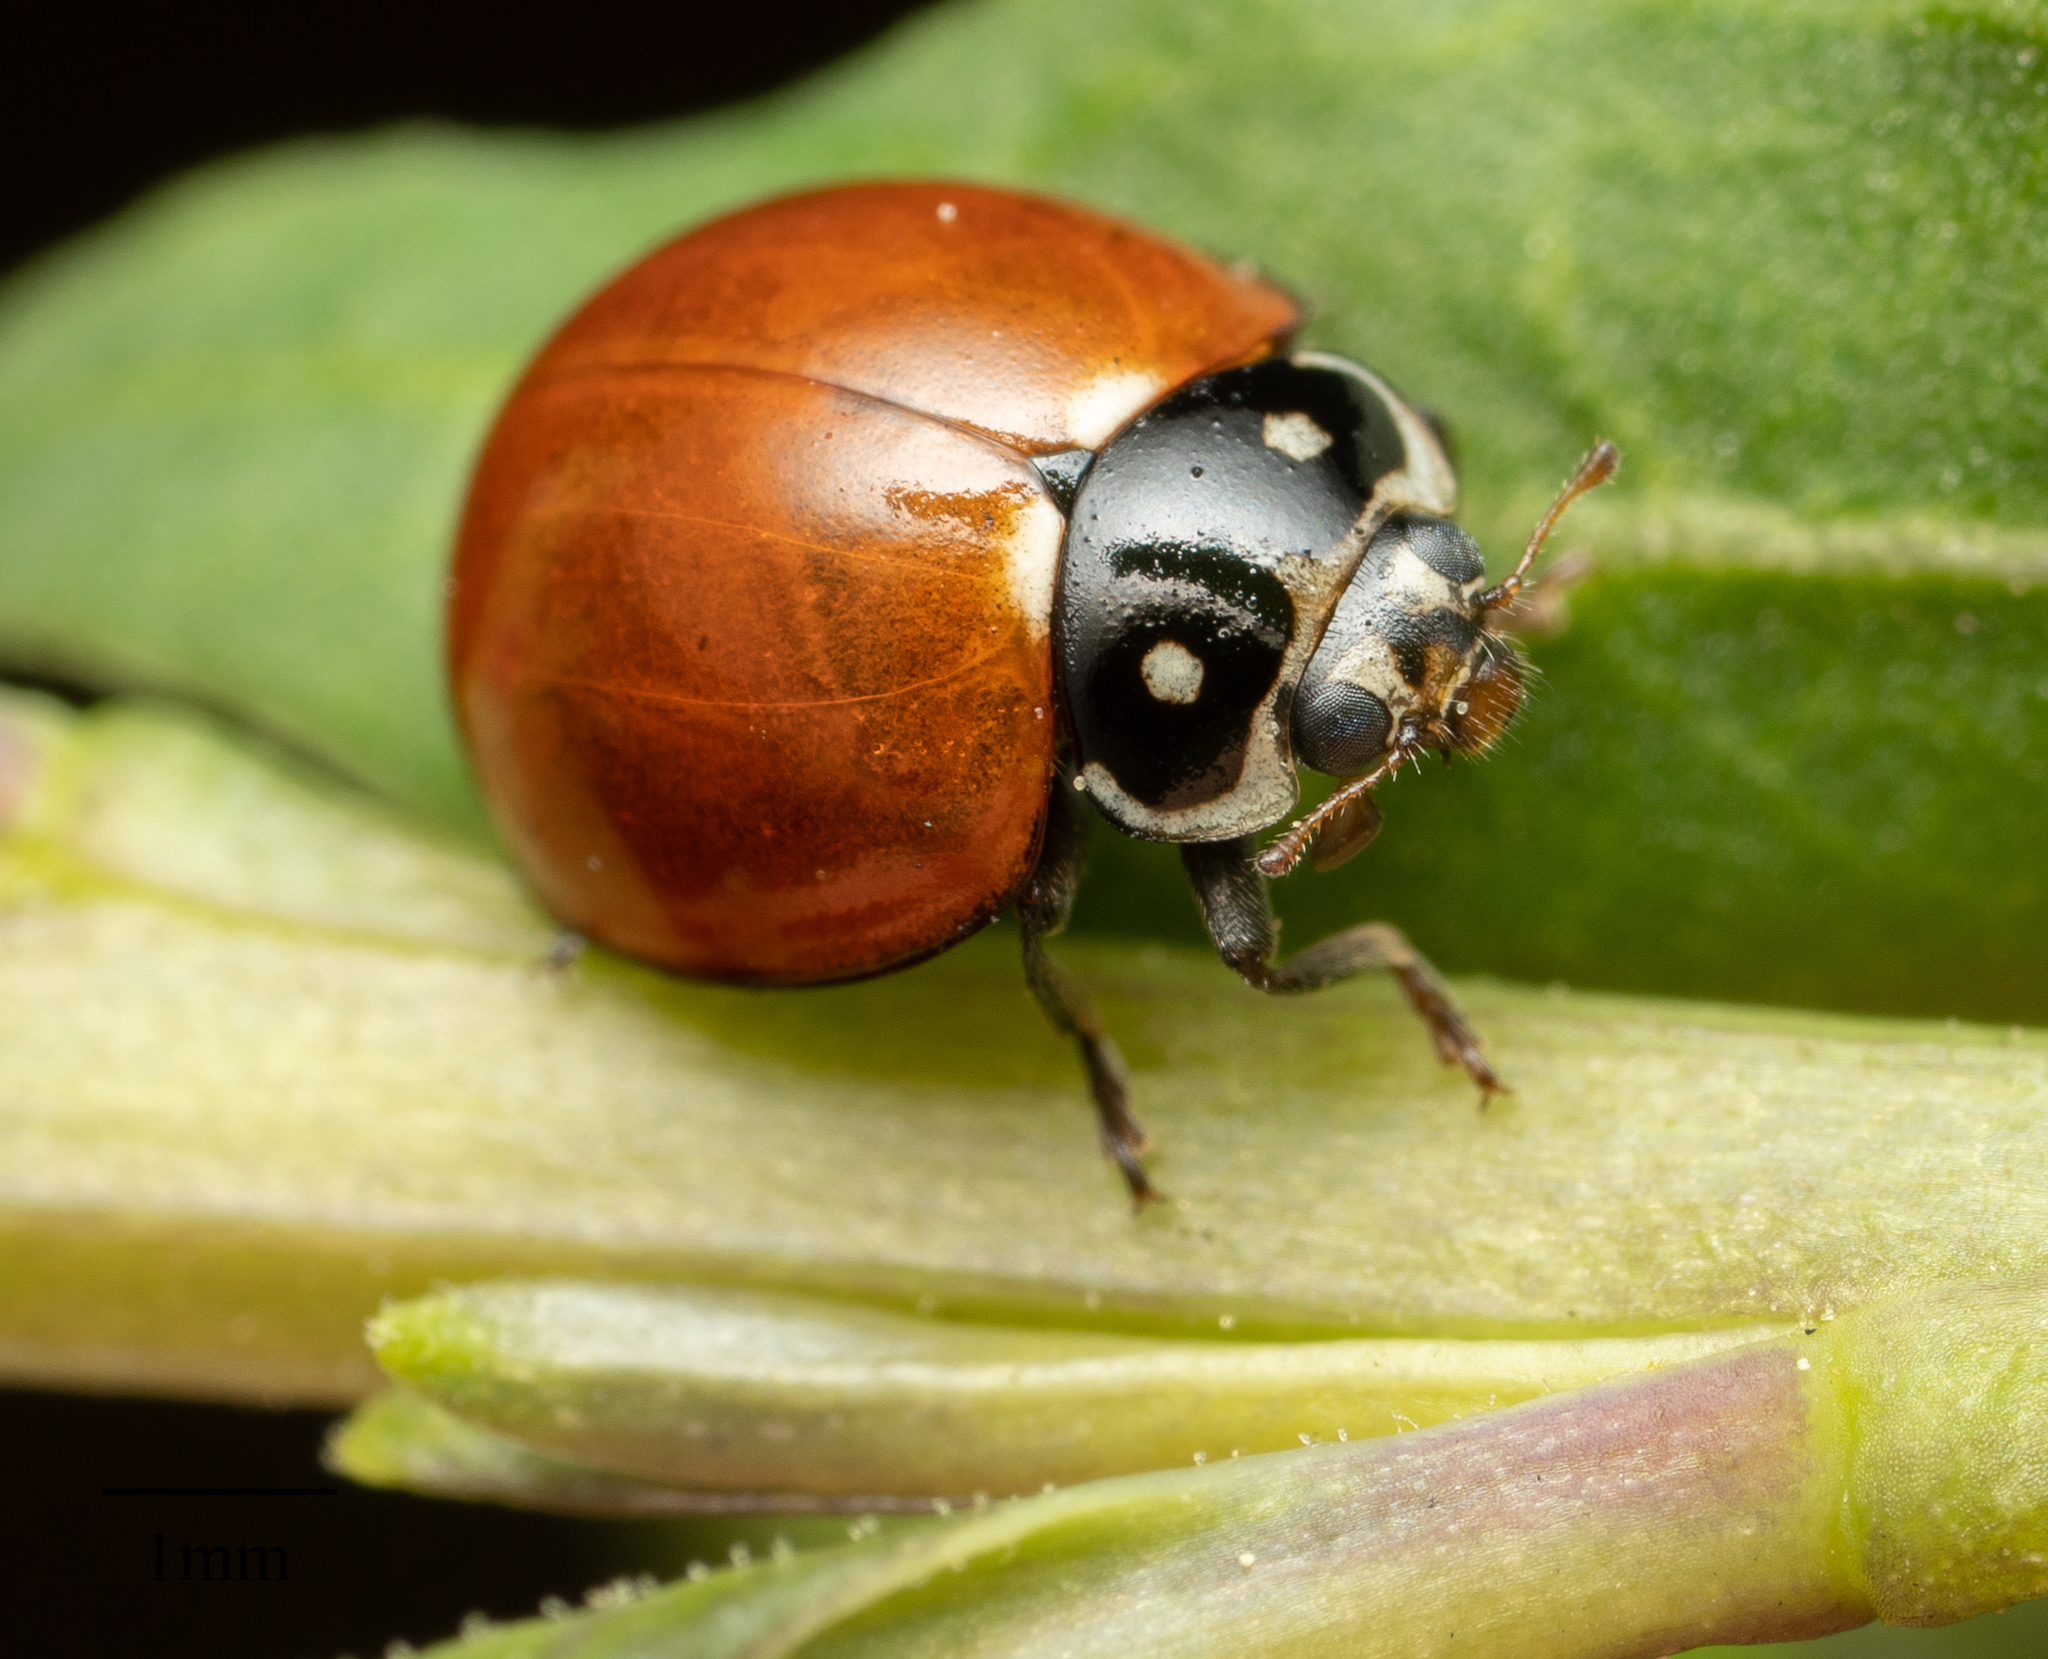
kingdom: Animalia
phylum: Arthropoda
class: Insecta
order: Coleoptera
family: Coccinellidae
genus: Cycloneda
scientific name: Cycloneda sanguinea
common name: Ladybird beetle
